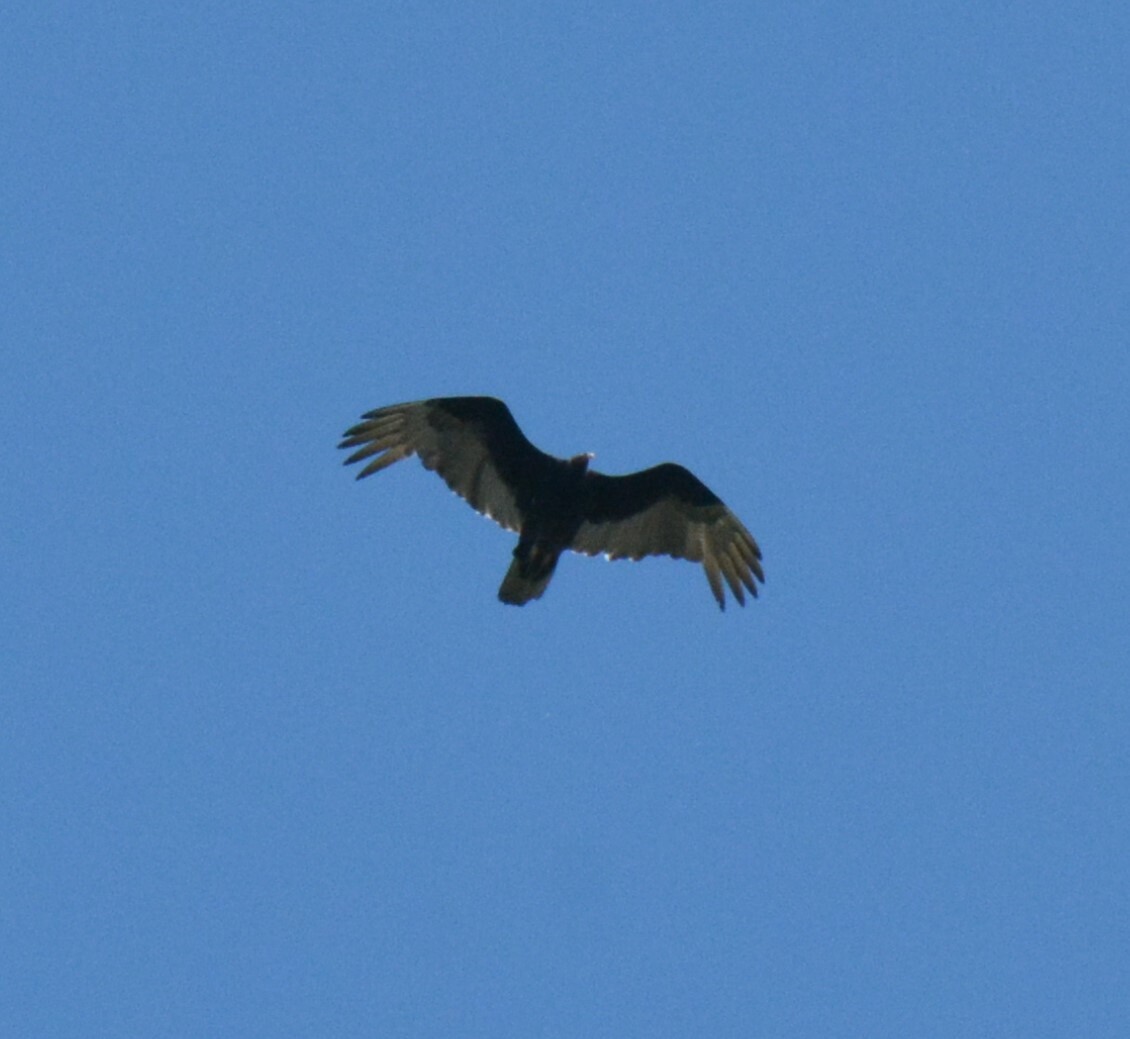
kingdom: Animalia
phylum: Chordata
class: Aves
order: Accipitriformes
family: Cathartidae
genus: Cathartes
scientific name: Cathartes aura
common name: Turkey vulture
